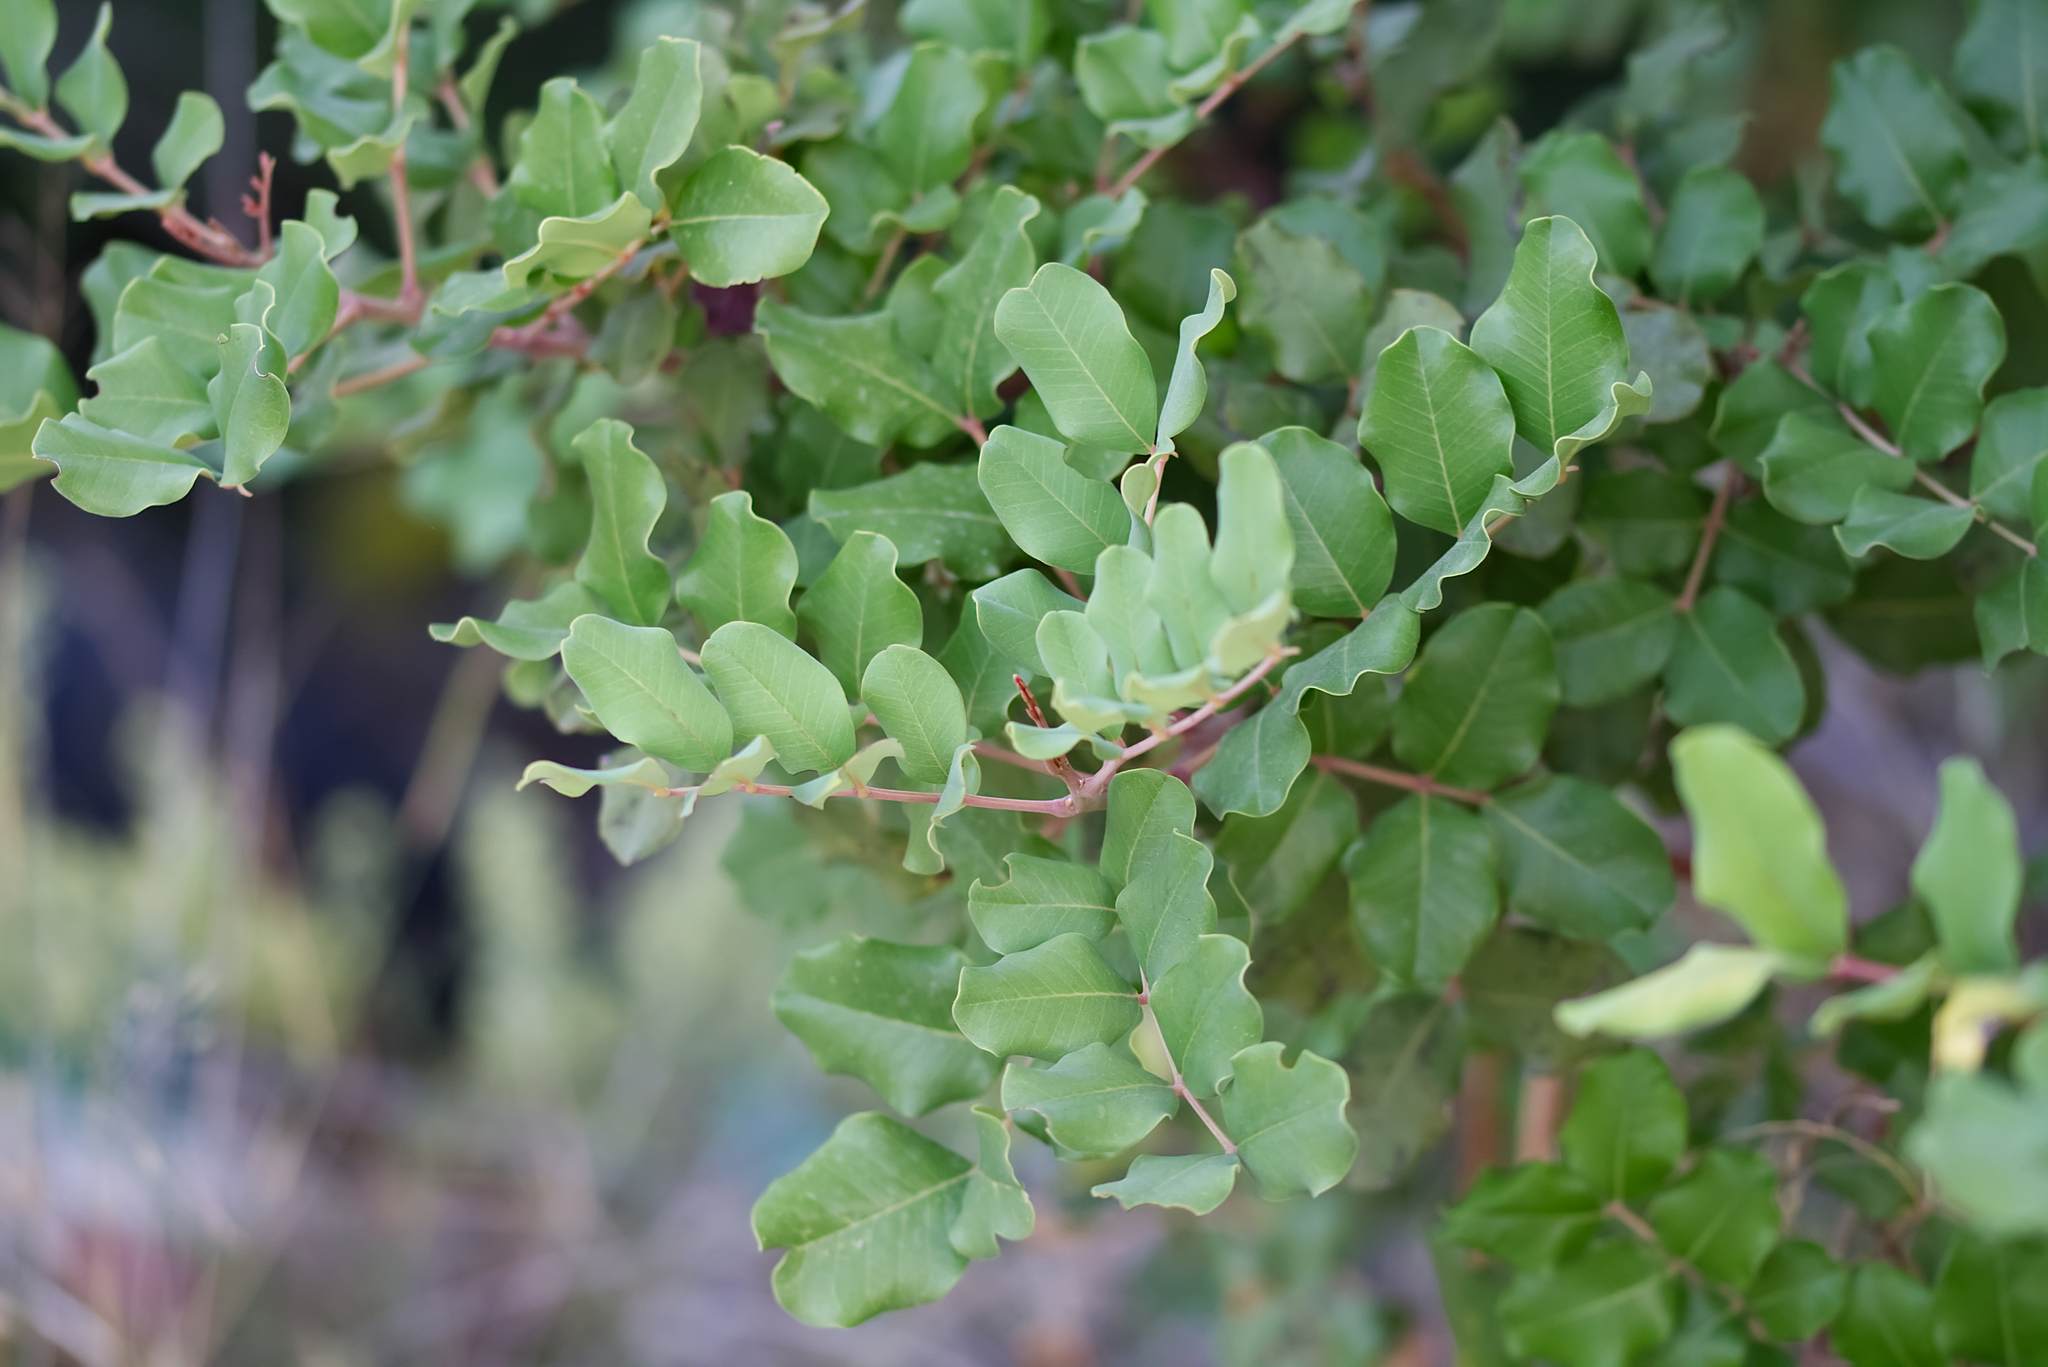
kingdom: Plantae
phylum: Tracheophyta
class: Magnoliopsida
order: Fabales
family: Fabaceae
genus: Ceratonia
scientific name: Ceratonia siliqua
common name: Carob
